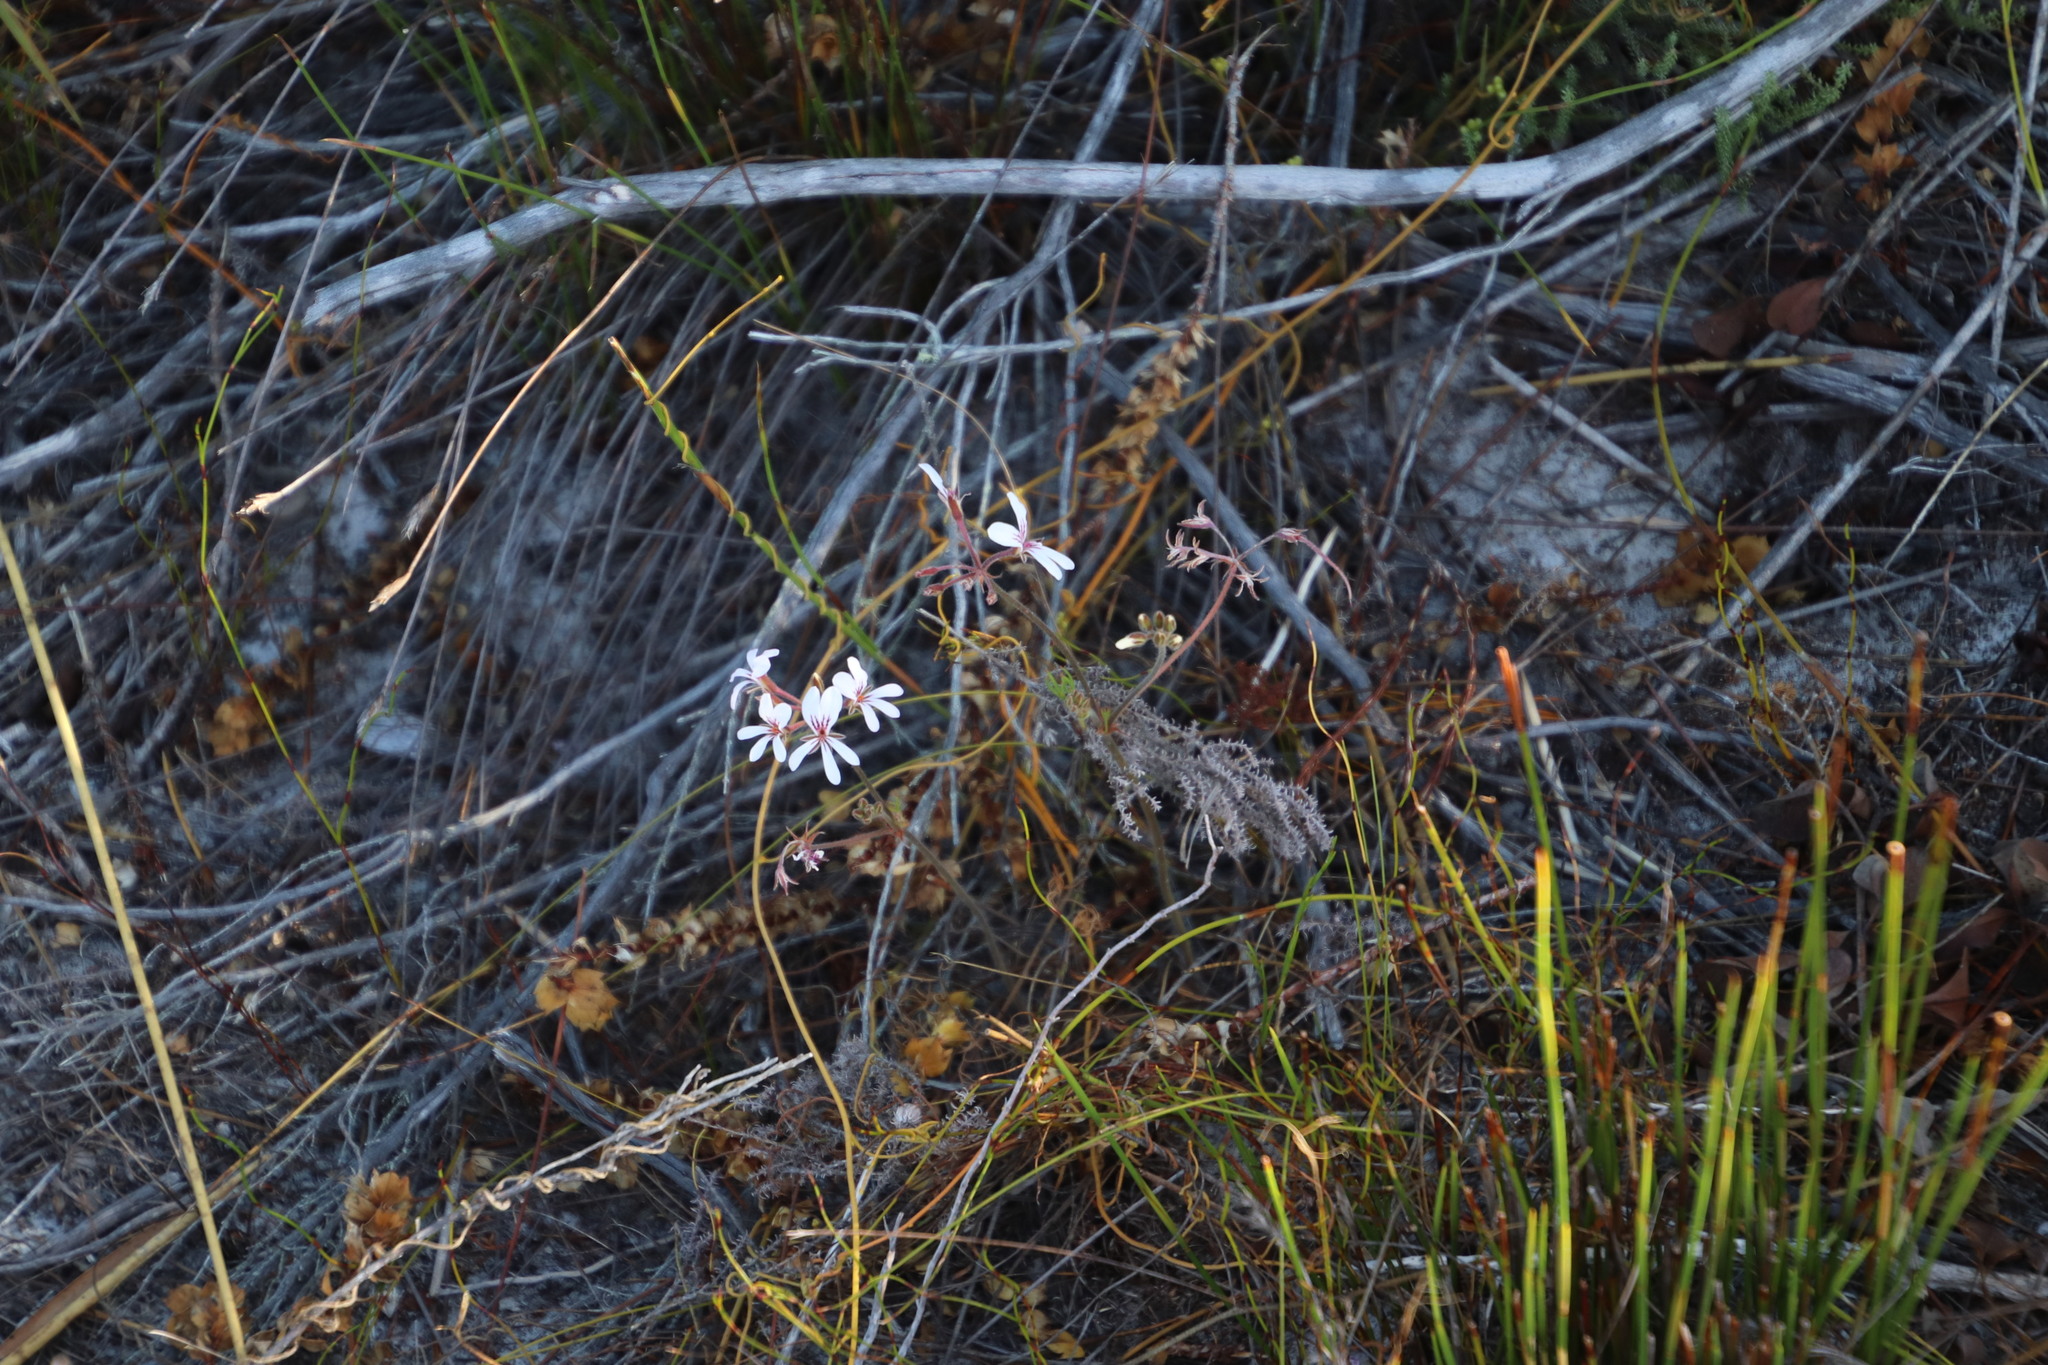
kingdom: Plantae
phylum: Tracheophyta
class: Magnoliopsida
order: Geraniales
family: Geraniaceae
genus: Pelargonium
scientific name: Pelargonium proliferum
